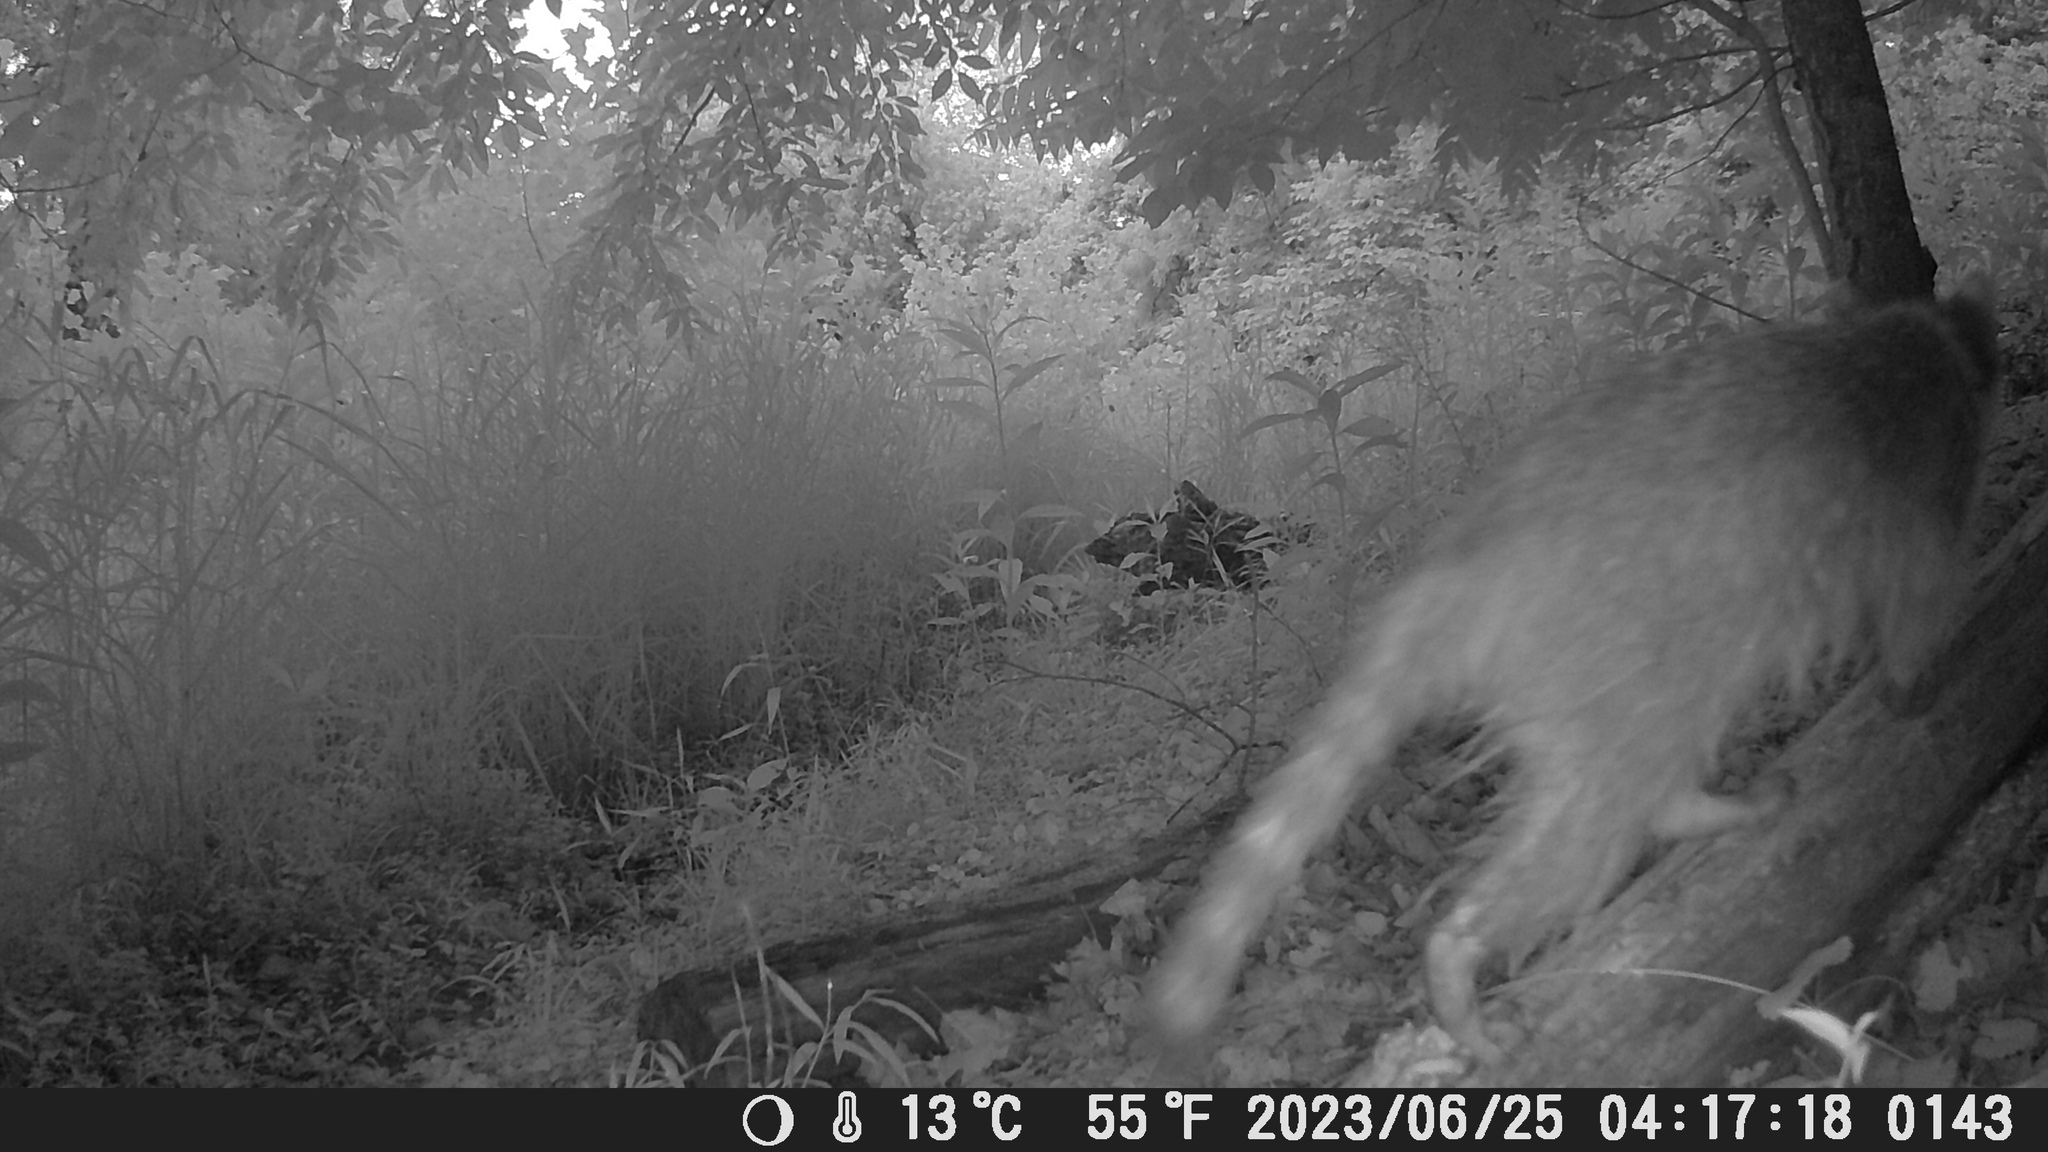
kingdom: Animalia
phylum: Chordata
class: Mammalia
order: Carnivora
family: Procyonidae
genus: Procyon
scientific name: Procyon lotor
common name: Raccoon
